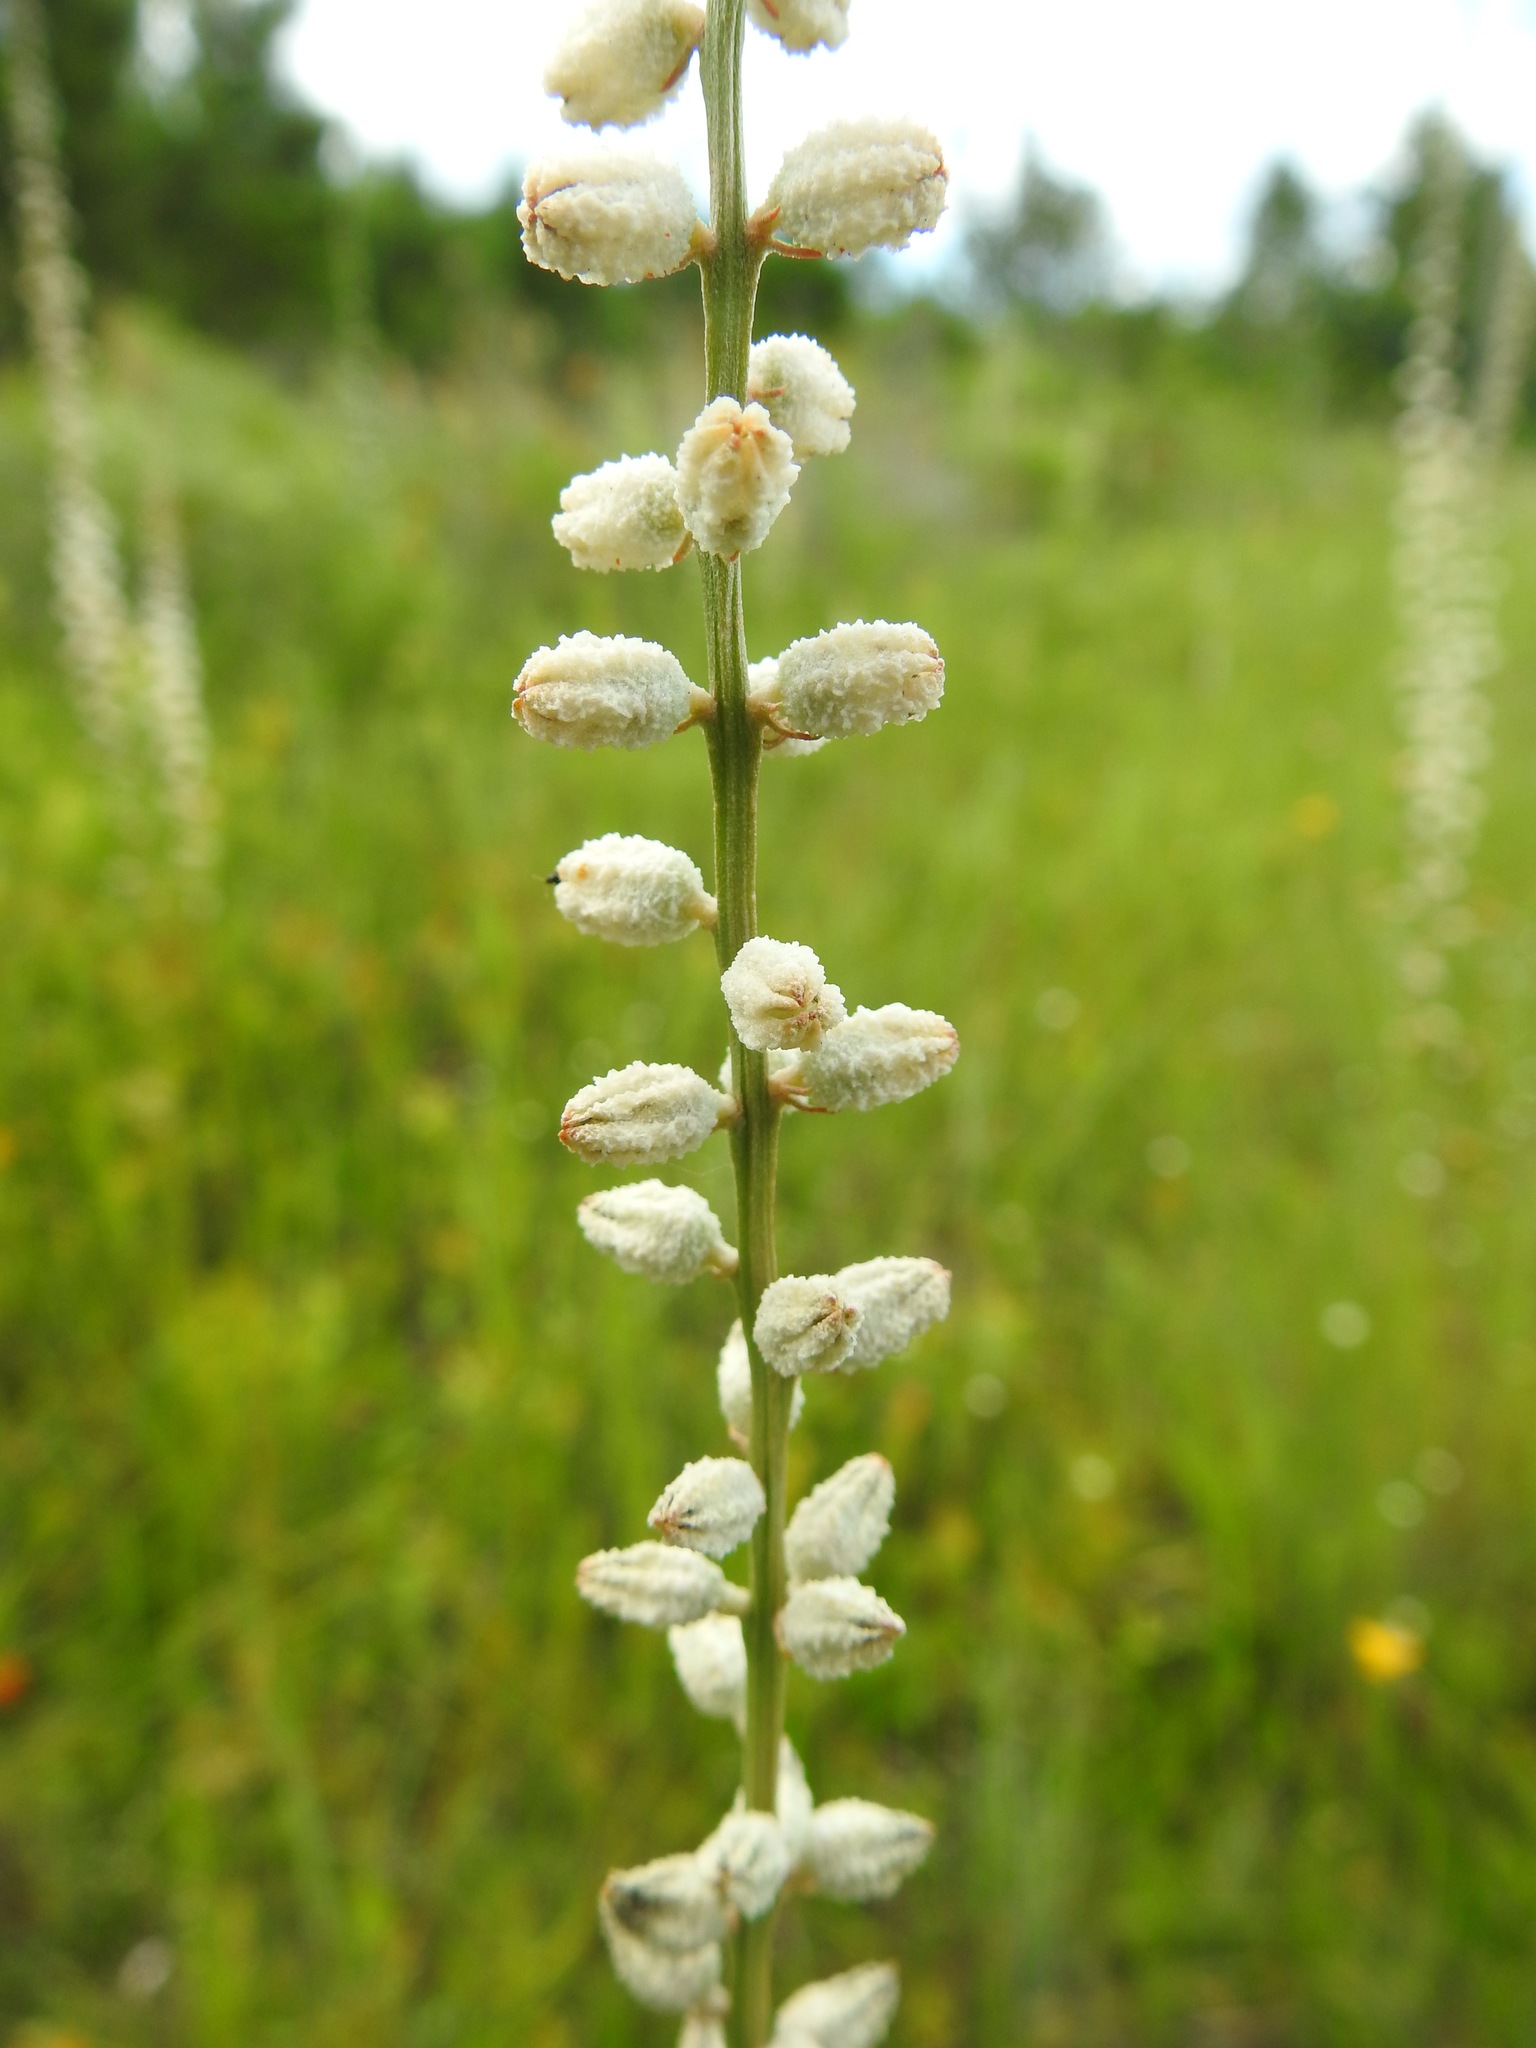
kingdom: Plantae
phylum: Tracheophyta
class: Liliopsida
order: Dioscoreales
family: Nartheciaceae
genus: Aletris
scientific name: Aletris obovata
